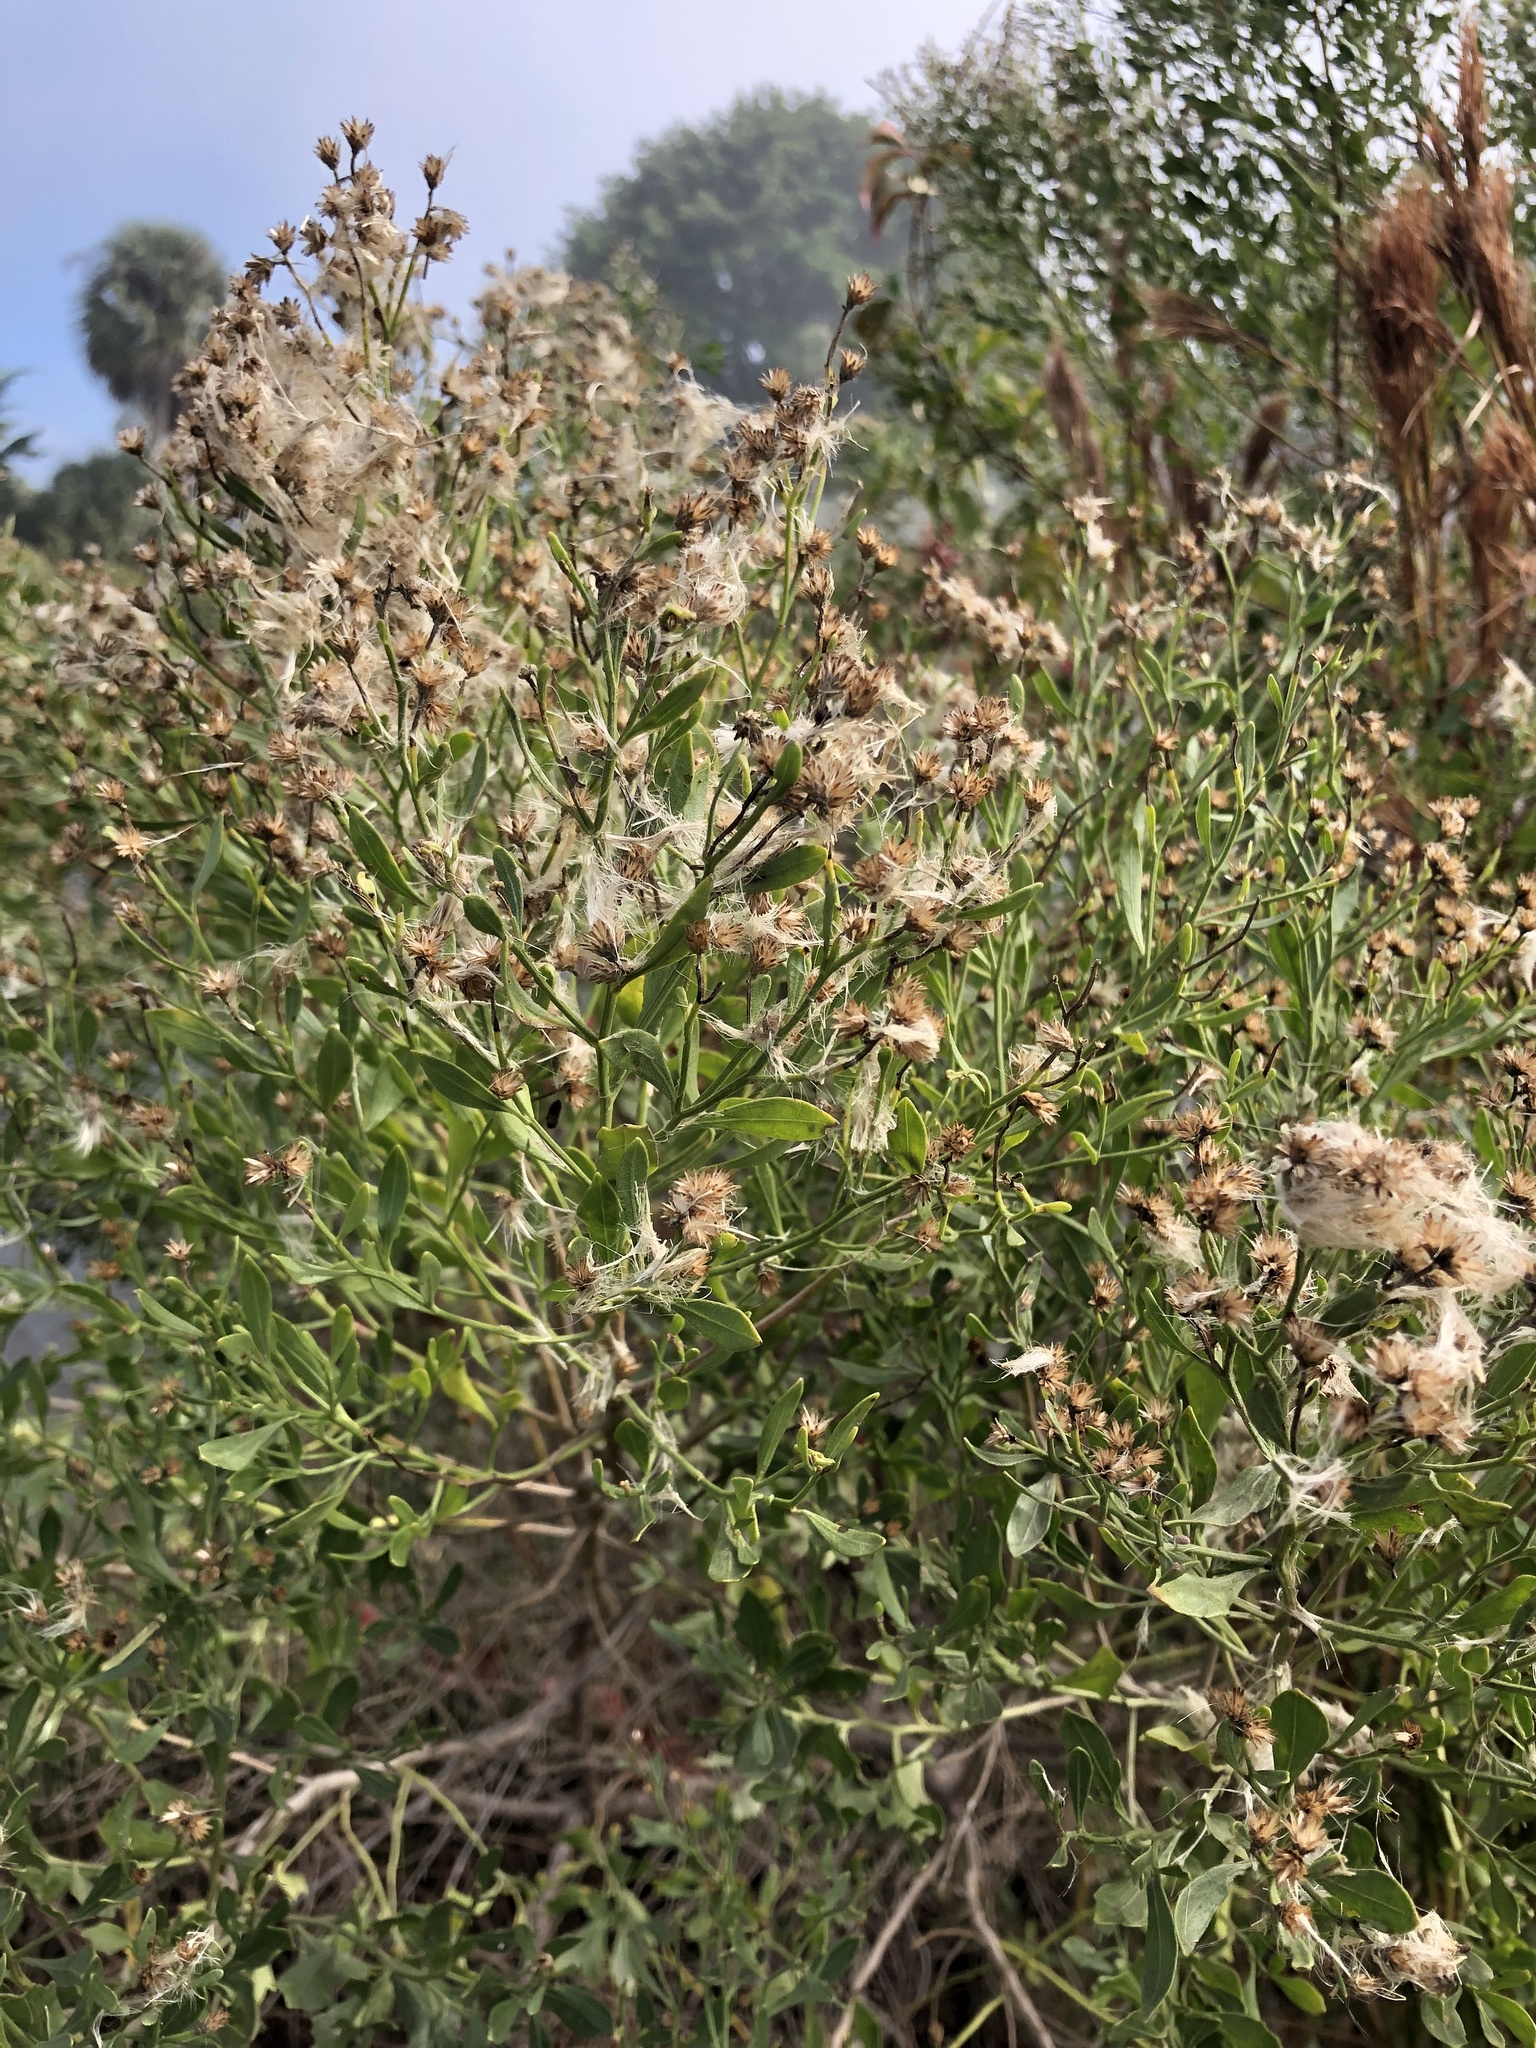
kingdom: Plantae
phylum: Tracheophyta
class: Magnoliopsida
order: Asterales
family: Asteraceae
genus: Baccharis
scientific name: Baccharis halimifolia
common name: Eastern baccharis
